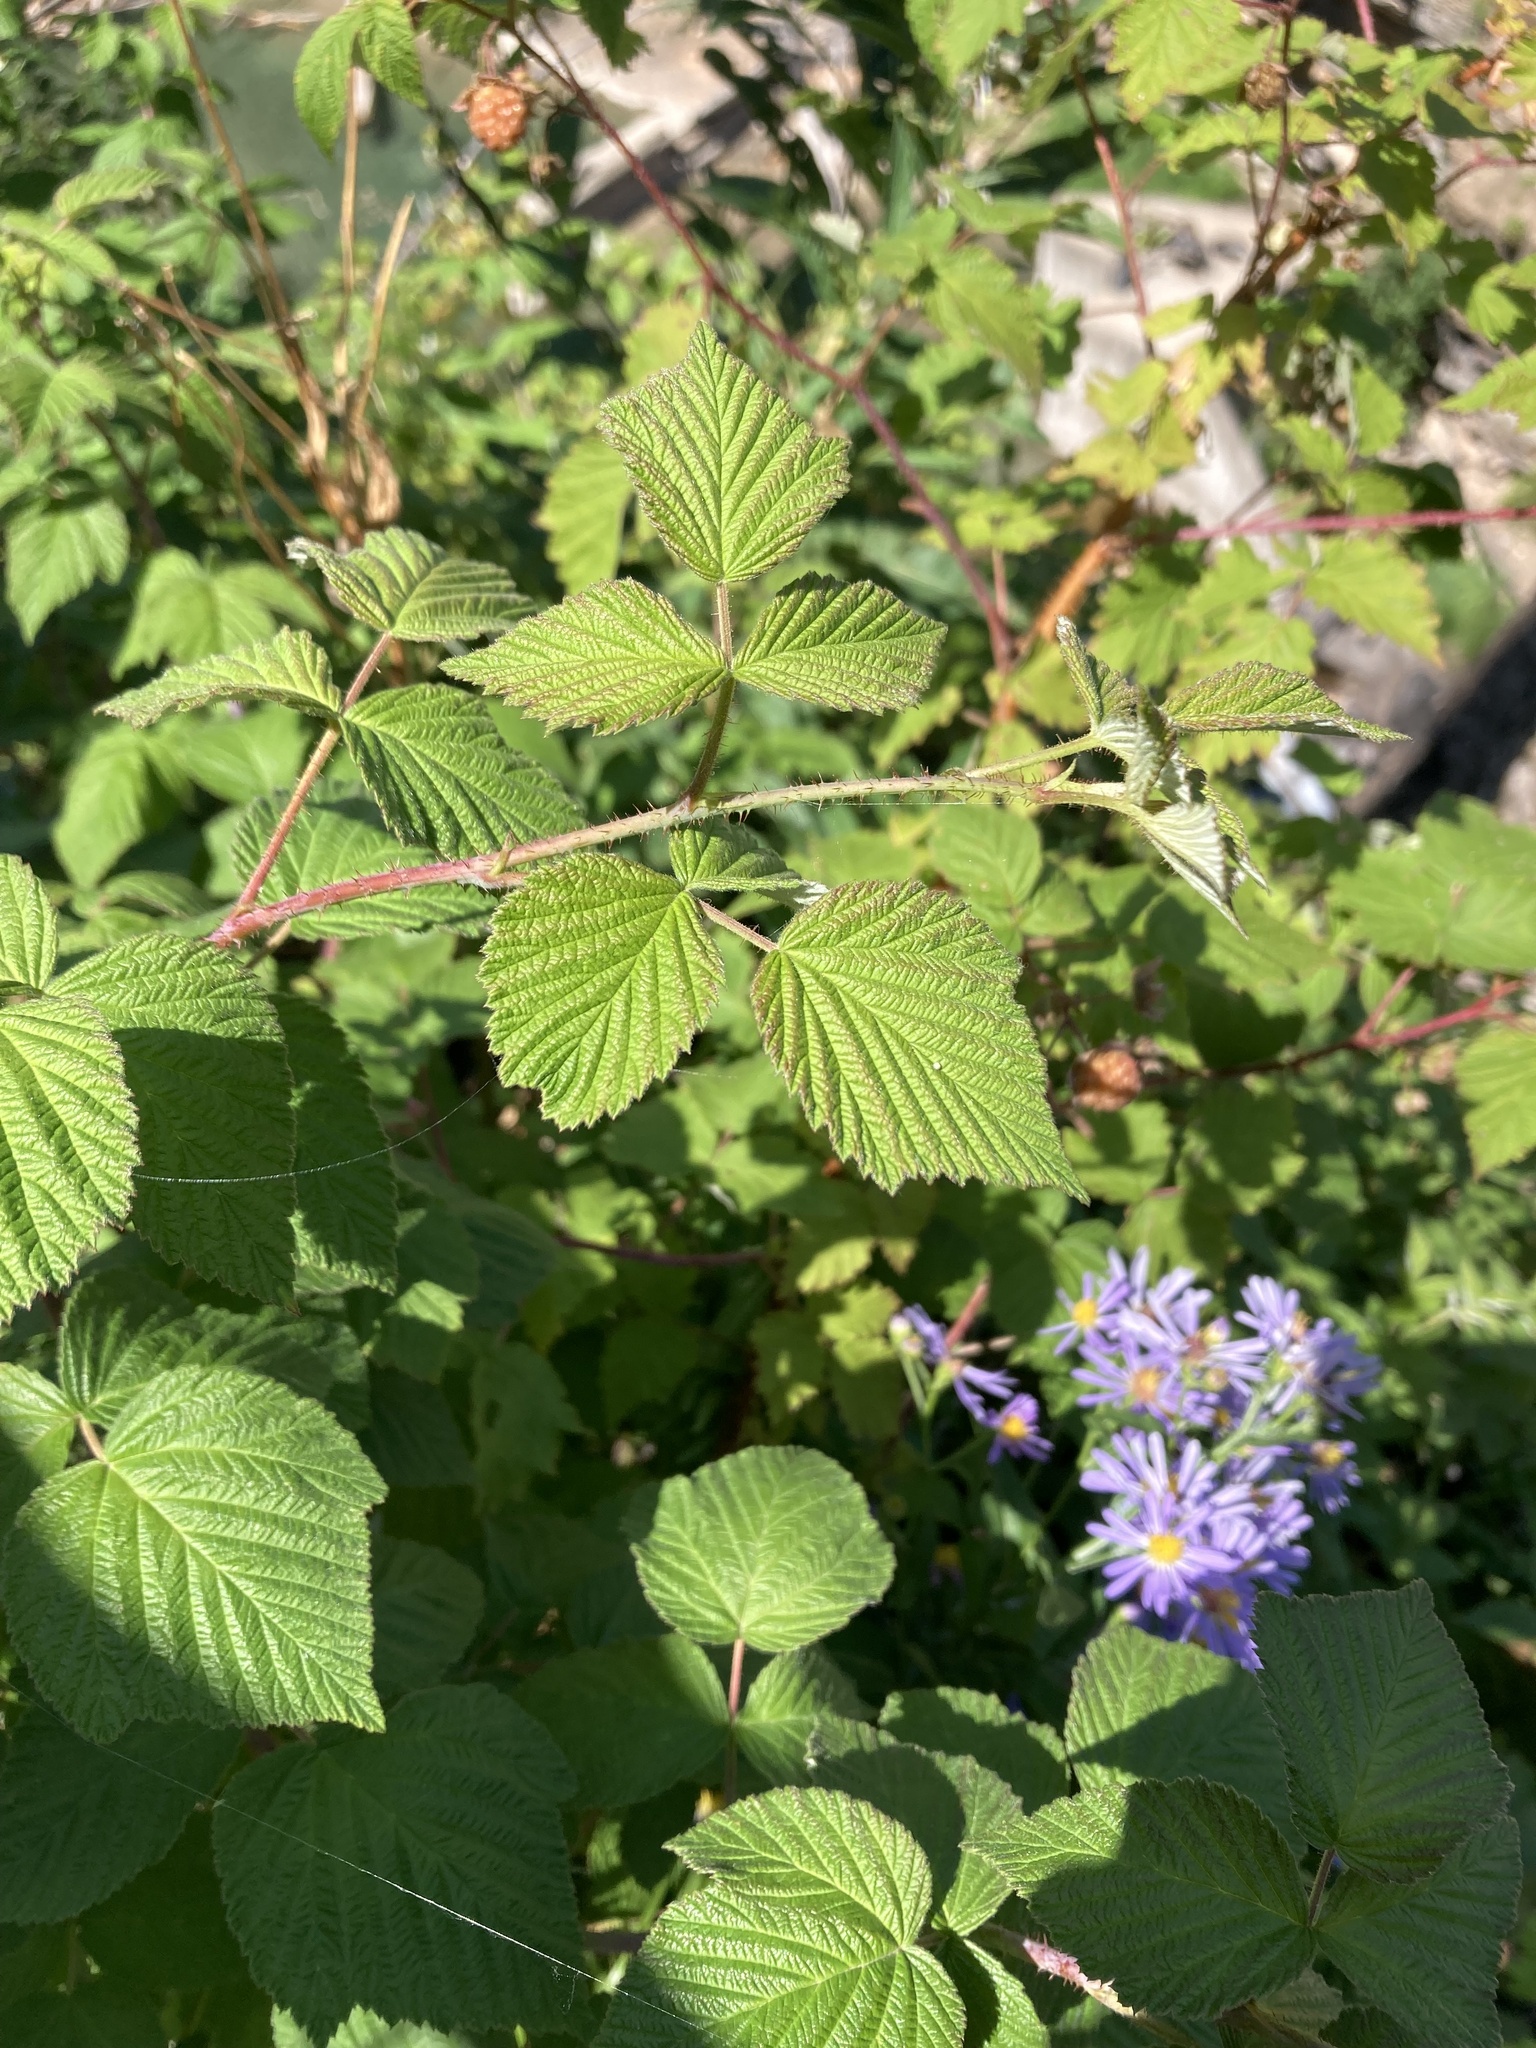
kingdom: Plantae
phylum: Tracheophyta
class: Magnoliopsida
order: Rosales
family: Rosaceae
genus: Rubus
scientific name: Rubus idaeus
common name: Raspberry
